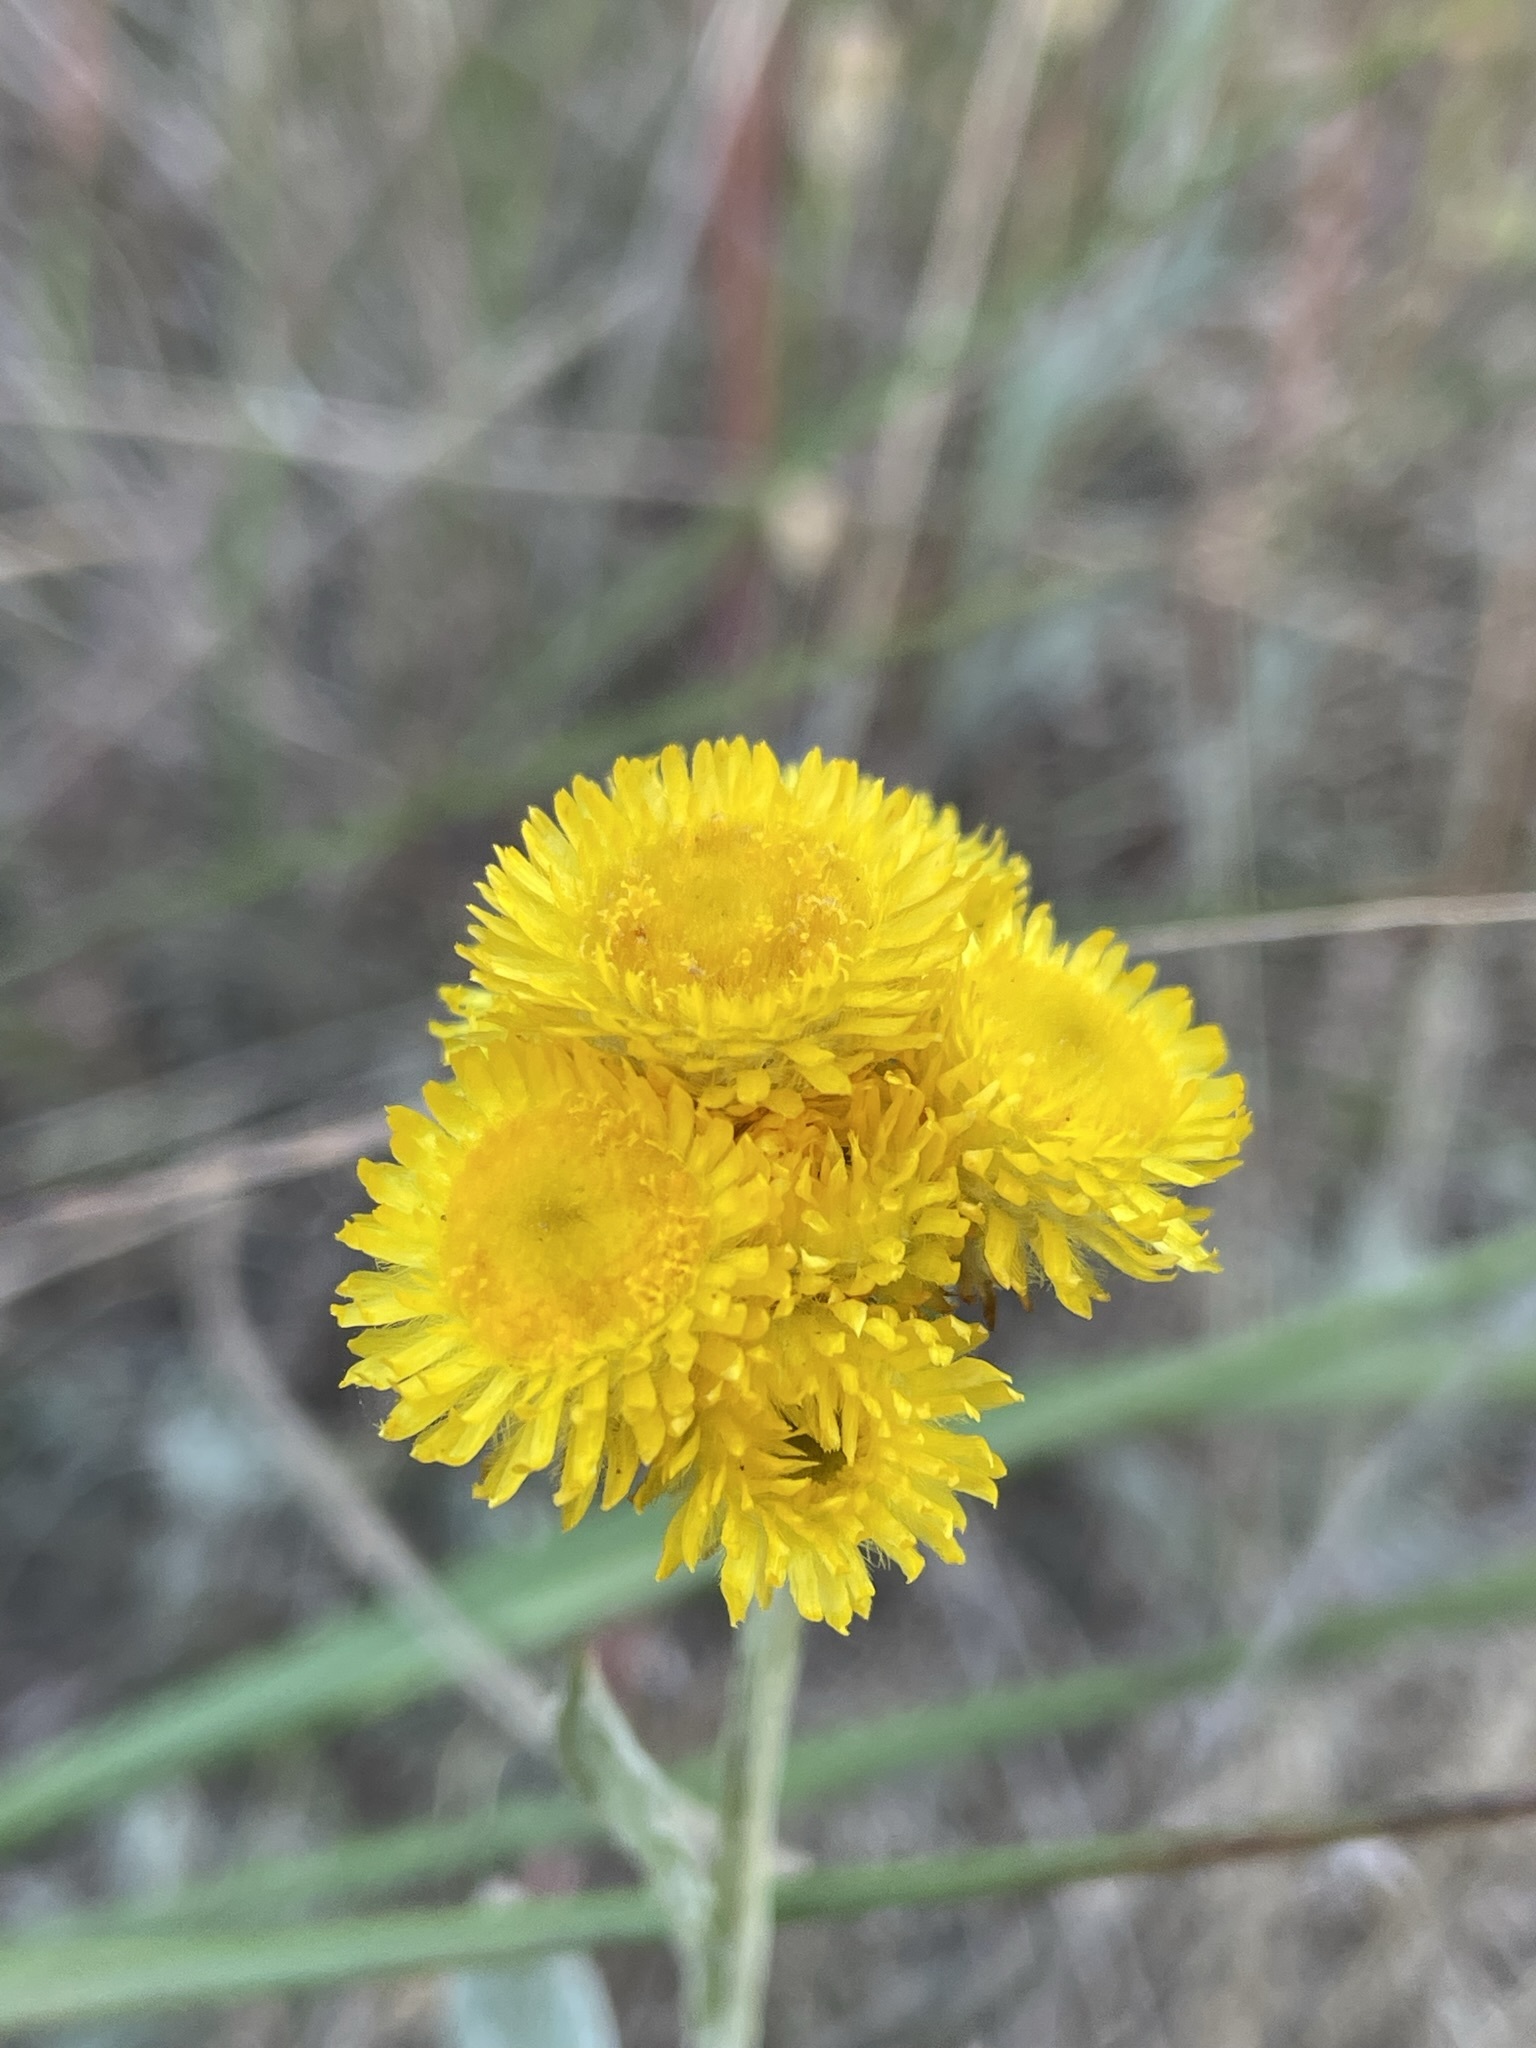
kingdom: Plantae
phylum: Tracheophyta
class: Magnoliopsida
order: Asterales
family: Asteraceae
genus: Chrysocephalum
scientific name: Chrysocephalum apiculatum
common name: Common everlasting
